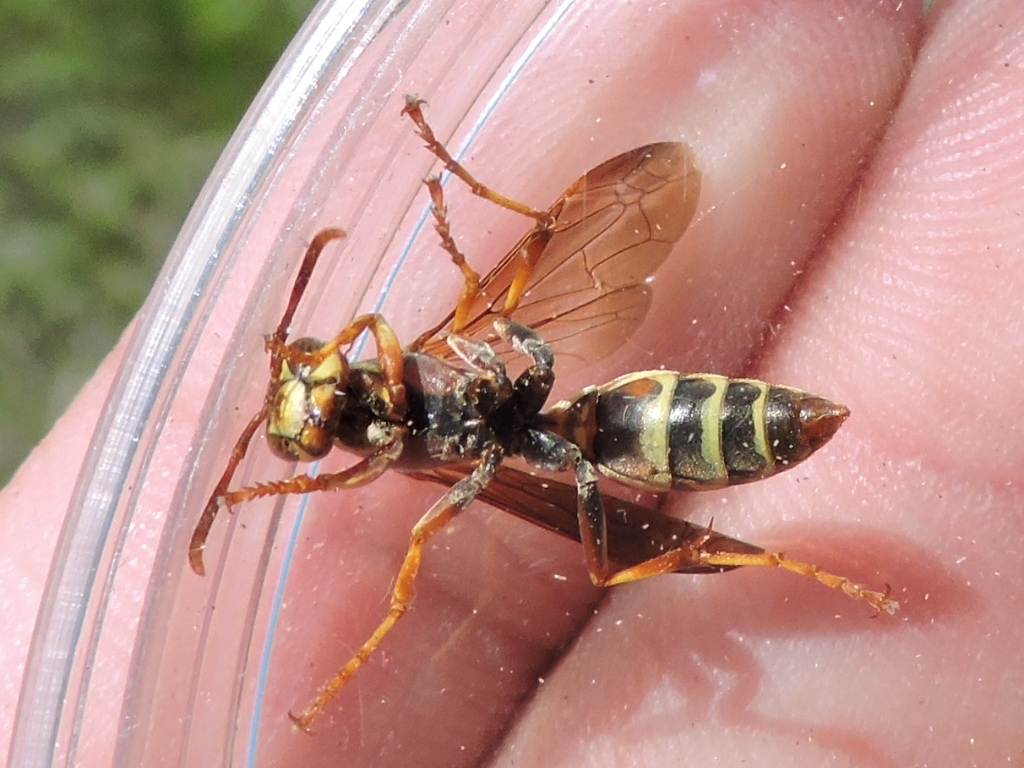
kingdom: Animalia
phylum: Arthropoda
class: Insecta
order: Hymenoptera
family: Eumenidae
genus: Polistes
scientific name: Polistes dorsalis
